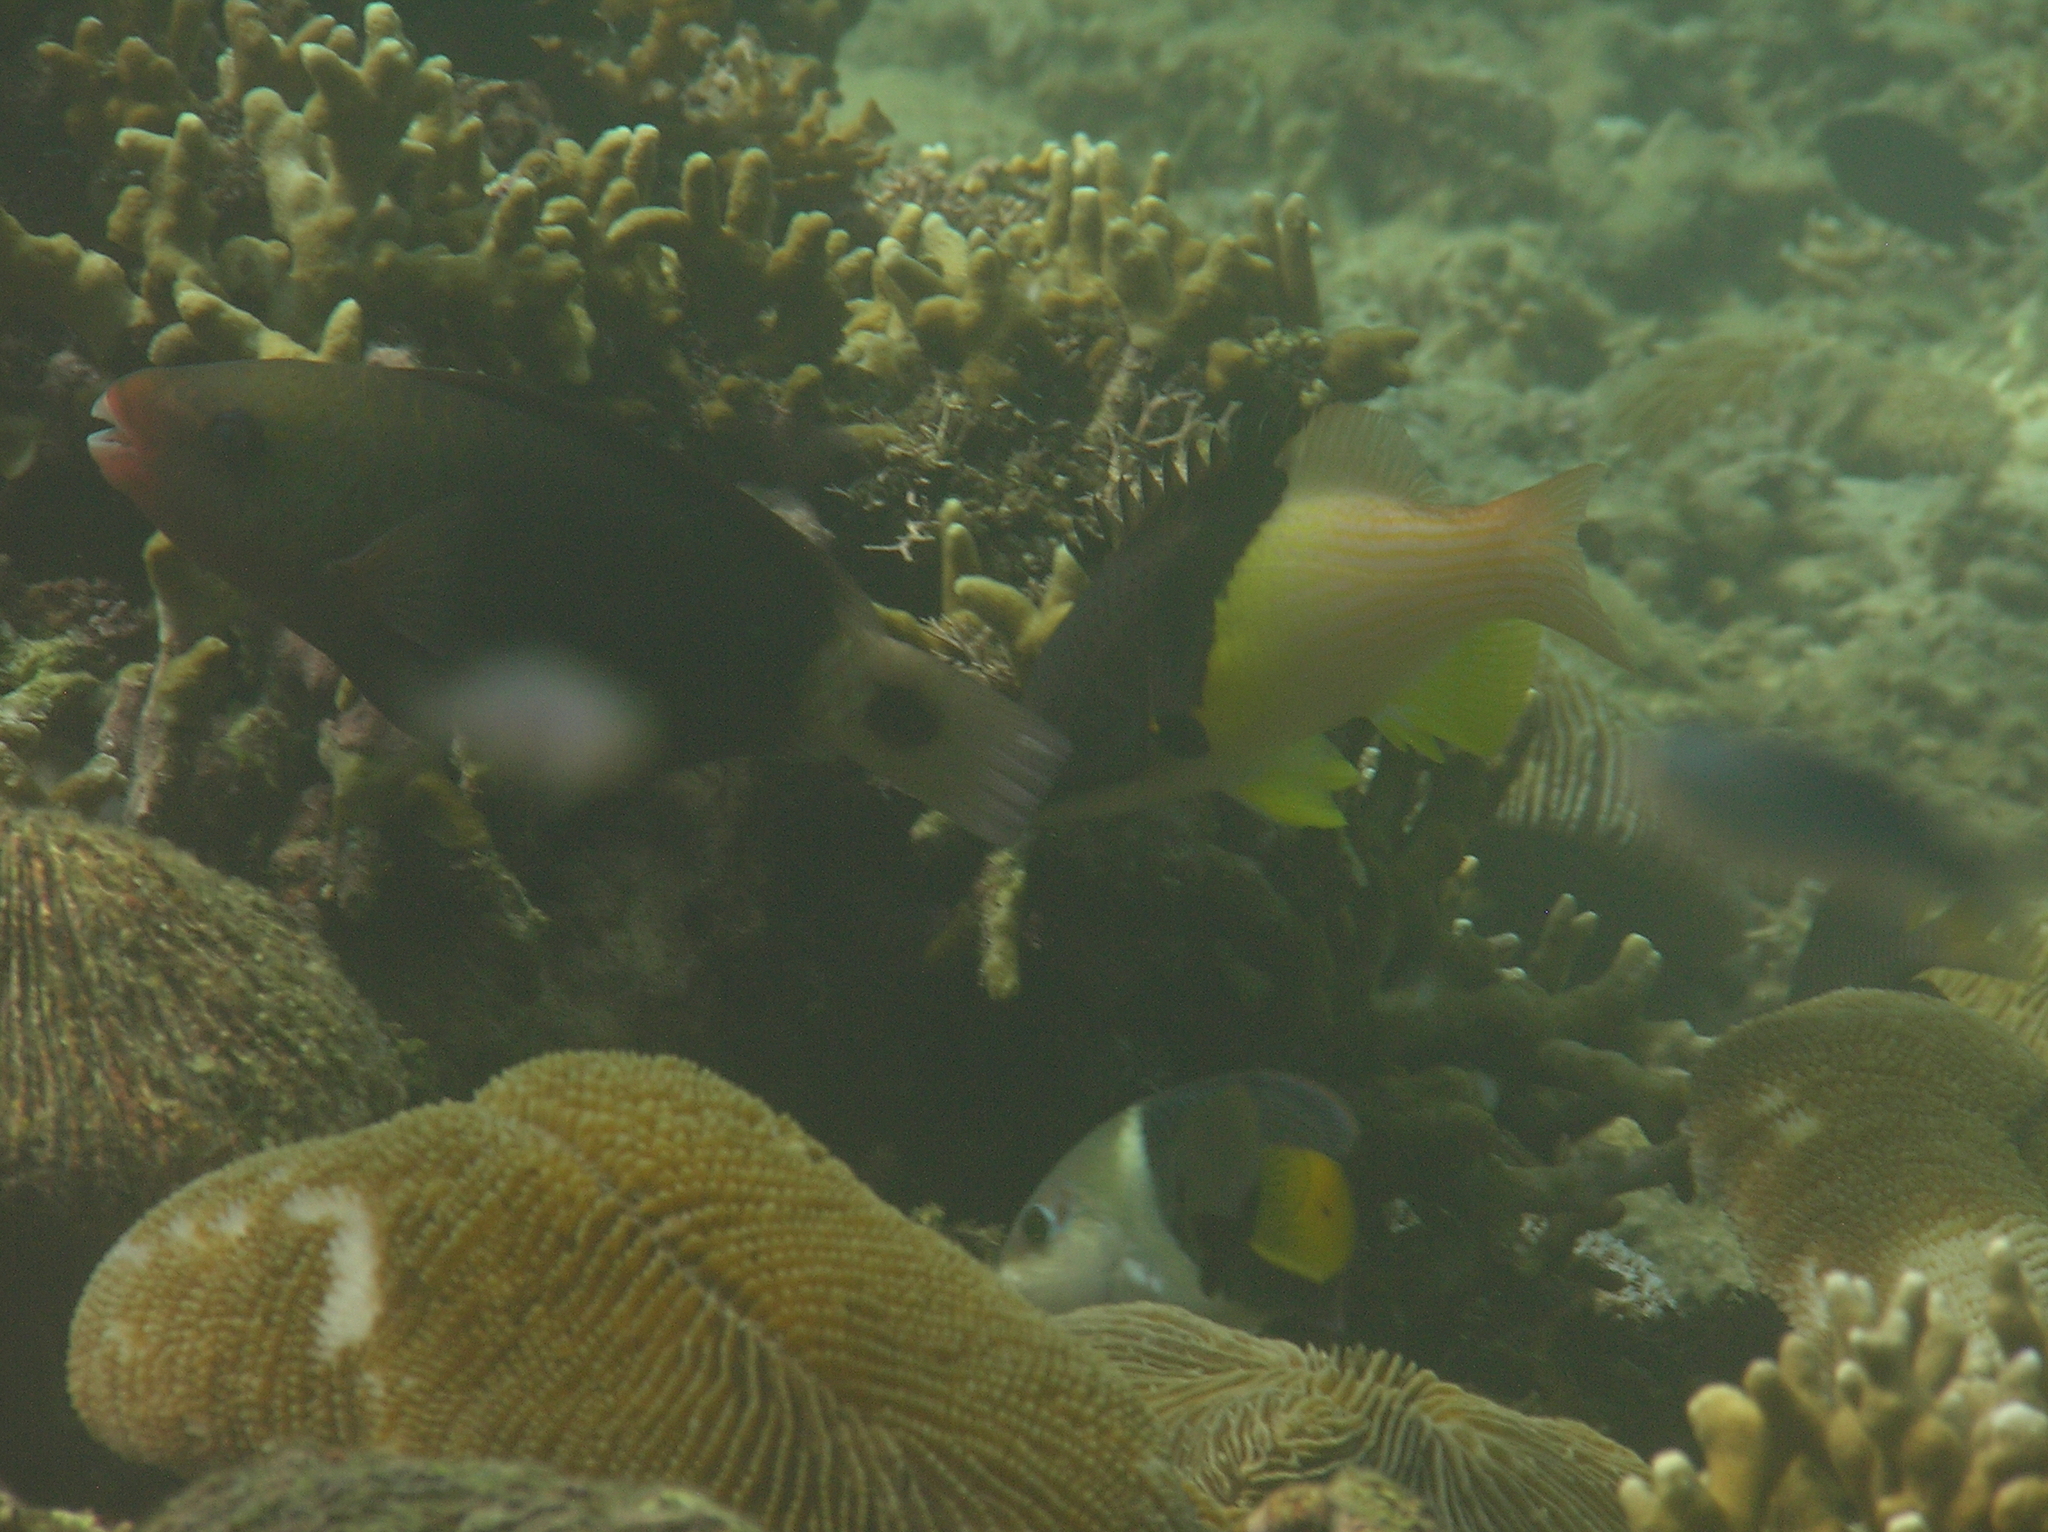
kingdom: Animalia
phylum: Chordata
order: Perciformes
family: Labridae
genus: Bodianus
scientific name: Bodianus mesothorax
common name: Coral hogfish
